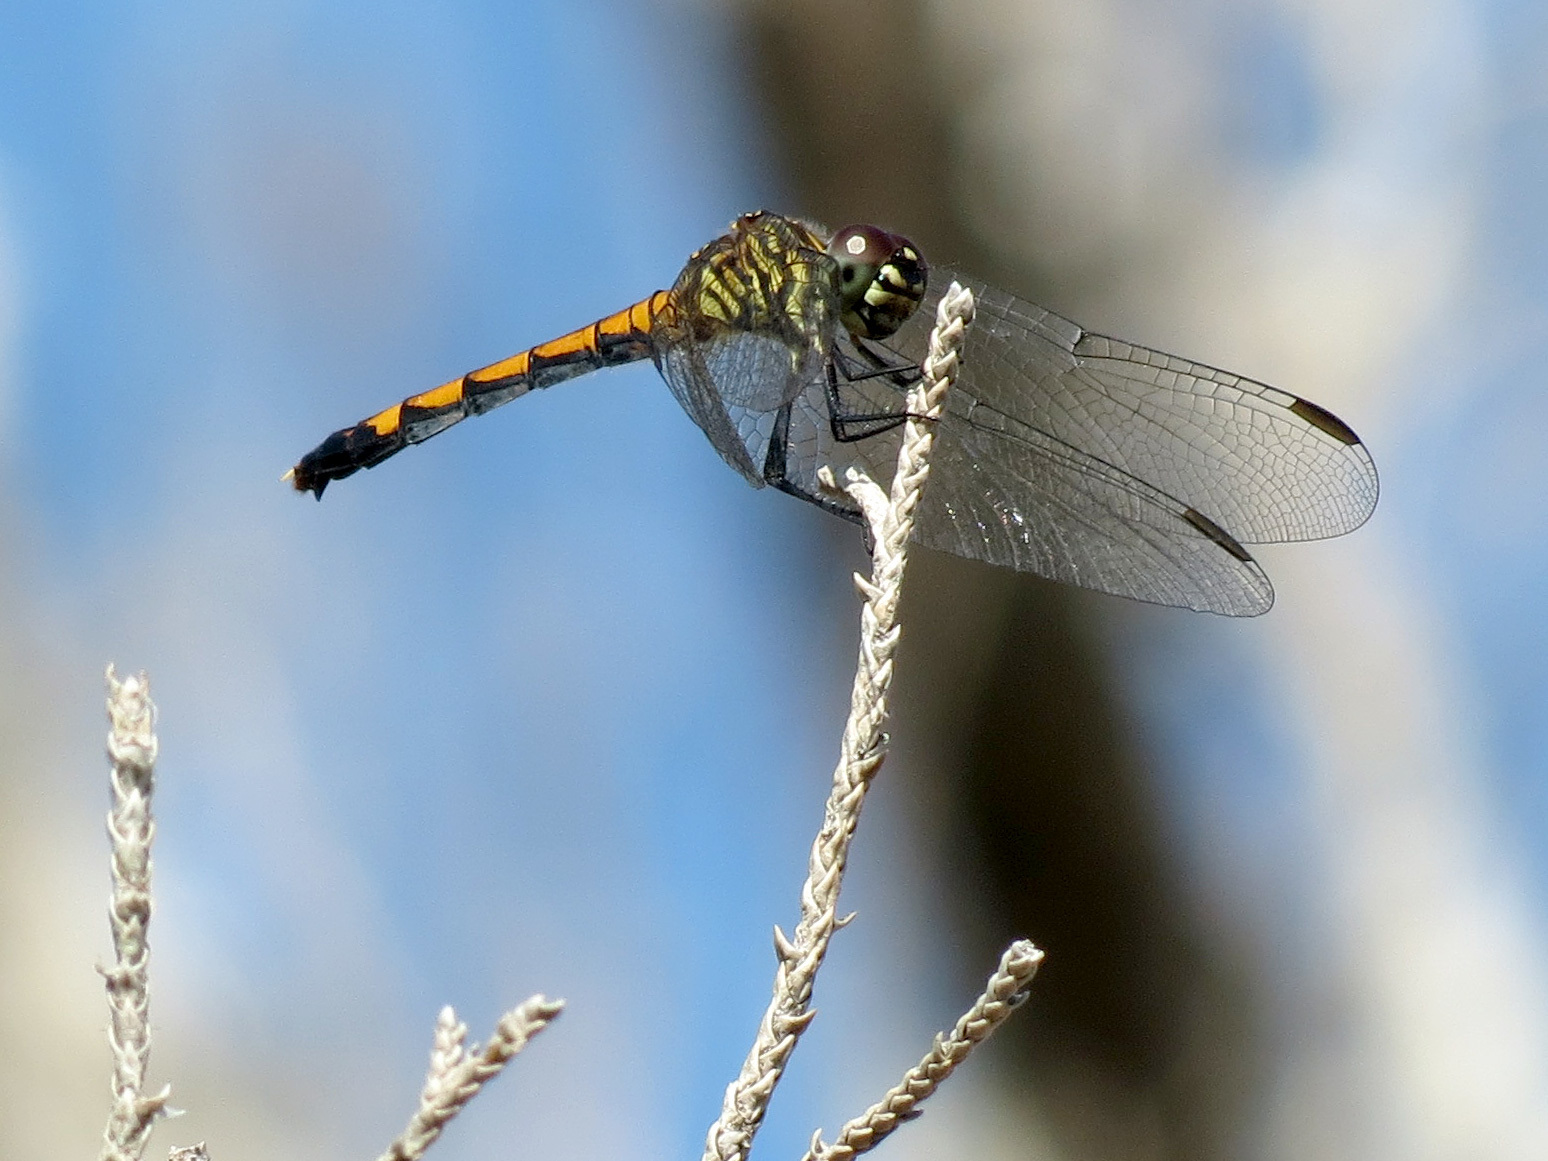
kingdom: Animalia
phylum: Arthropoda
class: Insecta
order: Odonata
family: Libellulidae
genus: Erythrodiplax
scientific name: Erythrodiplax berenice
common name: Seaside dragonlet
